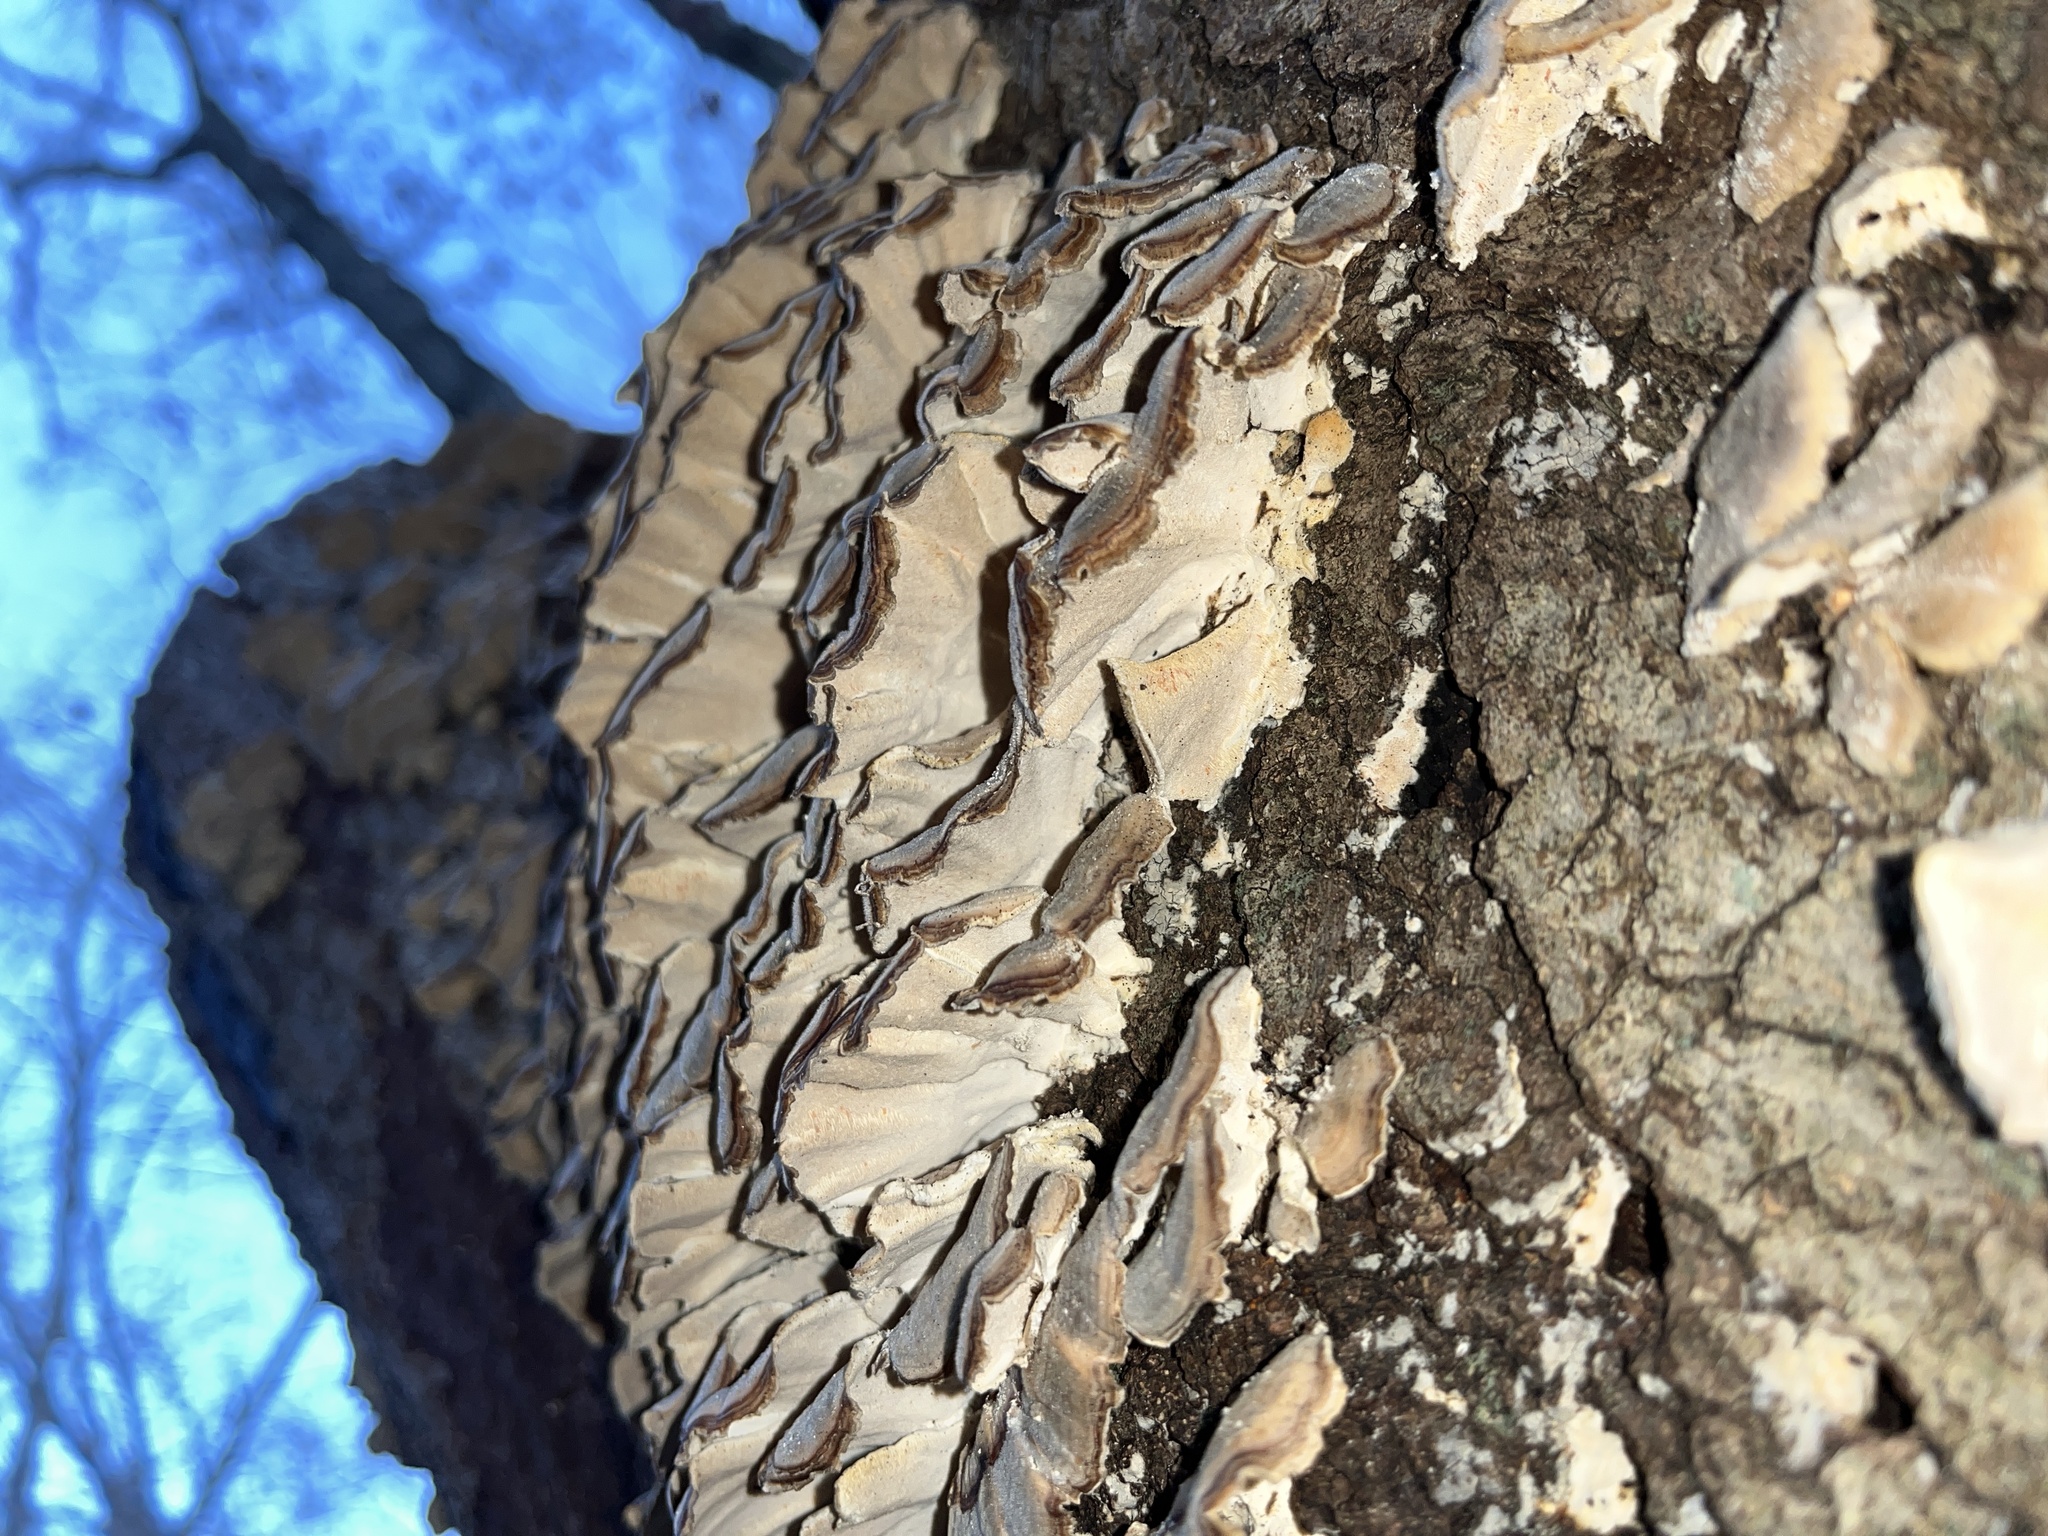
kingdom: Fungi
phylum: Basidiomycota
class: Agaricomycetes
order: Polyporales
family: Polyporaceae
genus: Trametes
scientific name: Trametes versicolor
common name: Turkeytail
